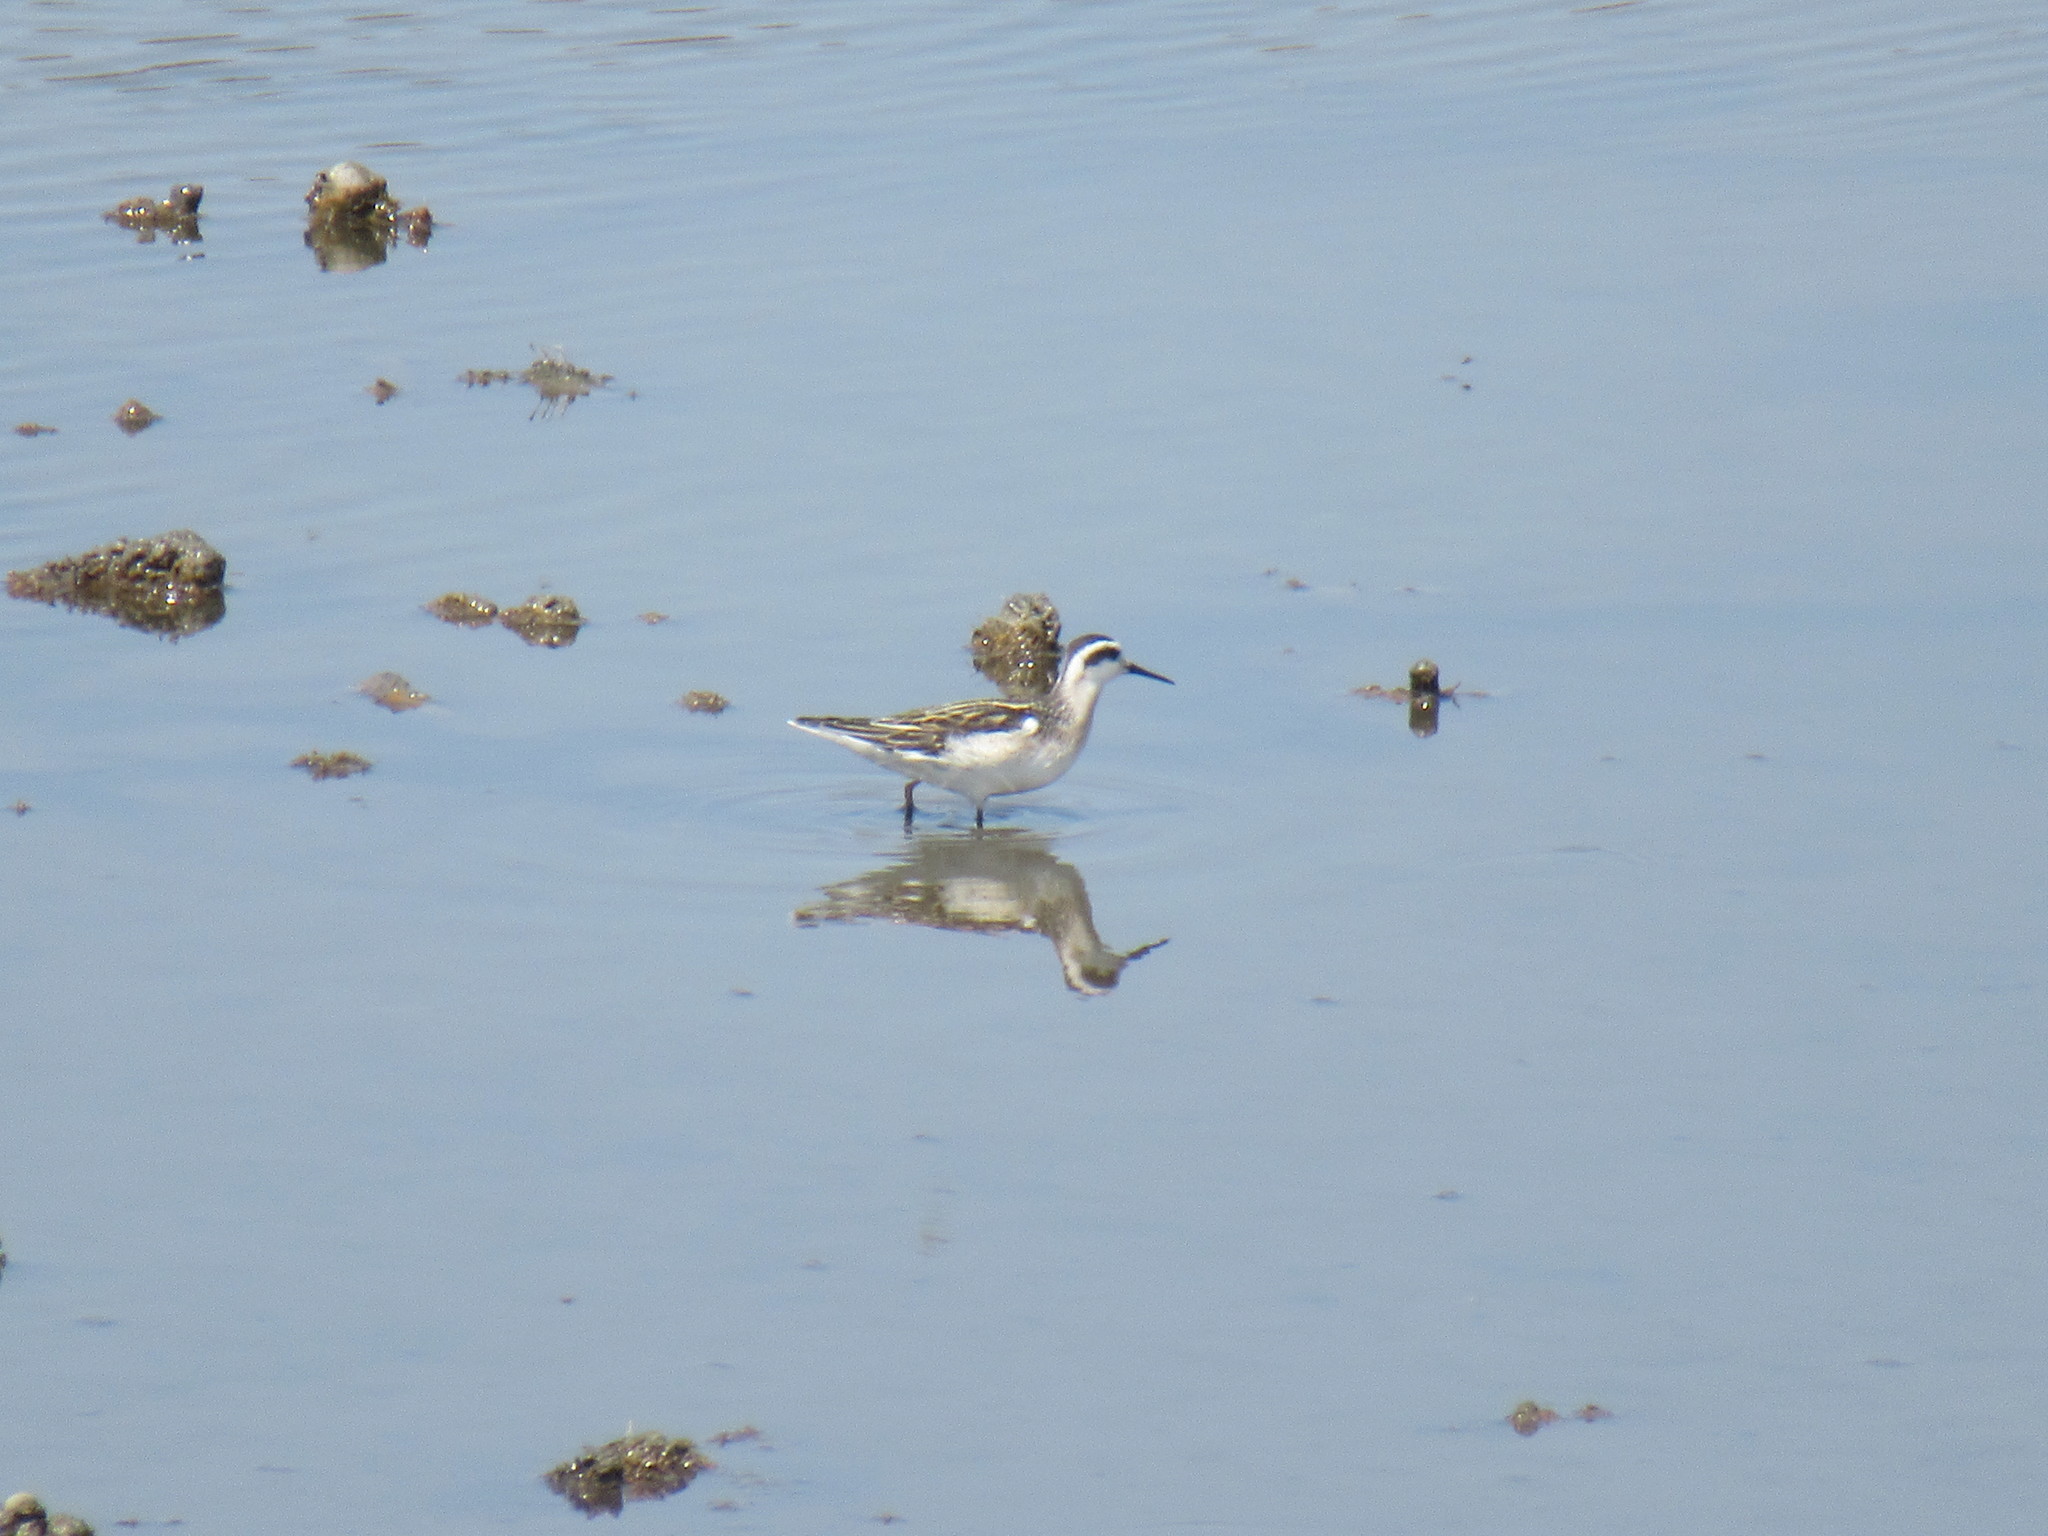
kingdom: Animalia
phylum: Chordata
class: Aves
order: Charadriiformes
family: Scolopacidae
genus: Phalaropus
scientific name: Phalaropus lobatus
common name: Red-necked phalarope
